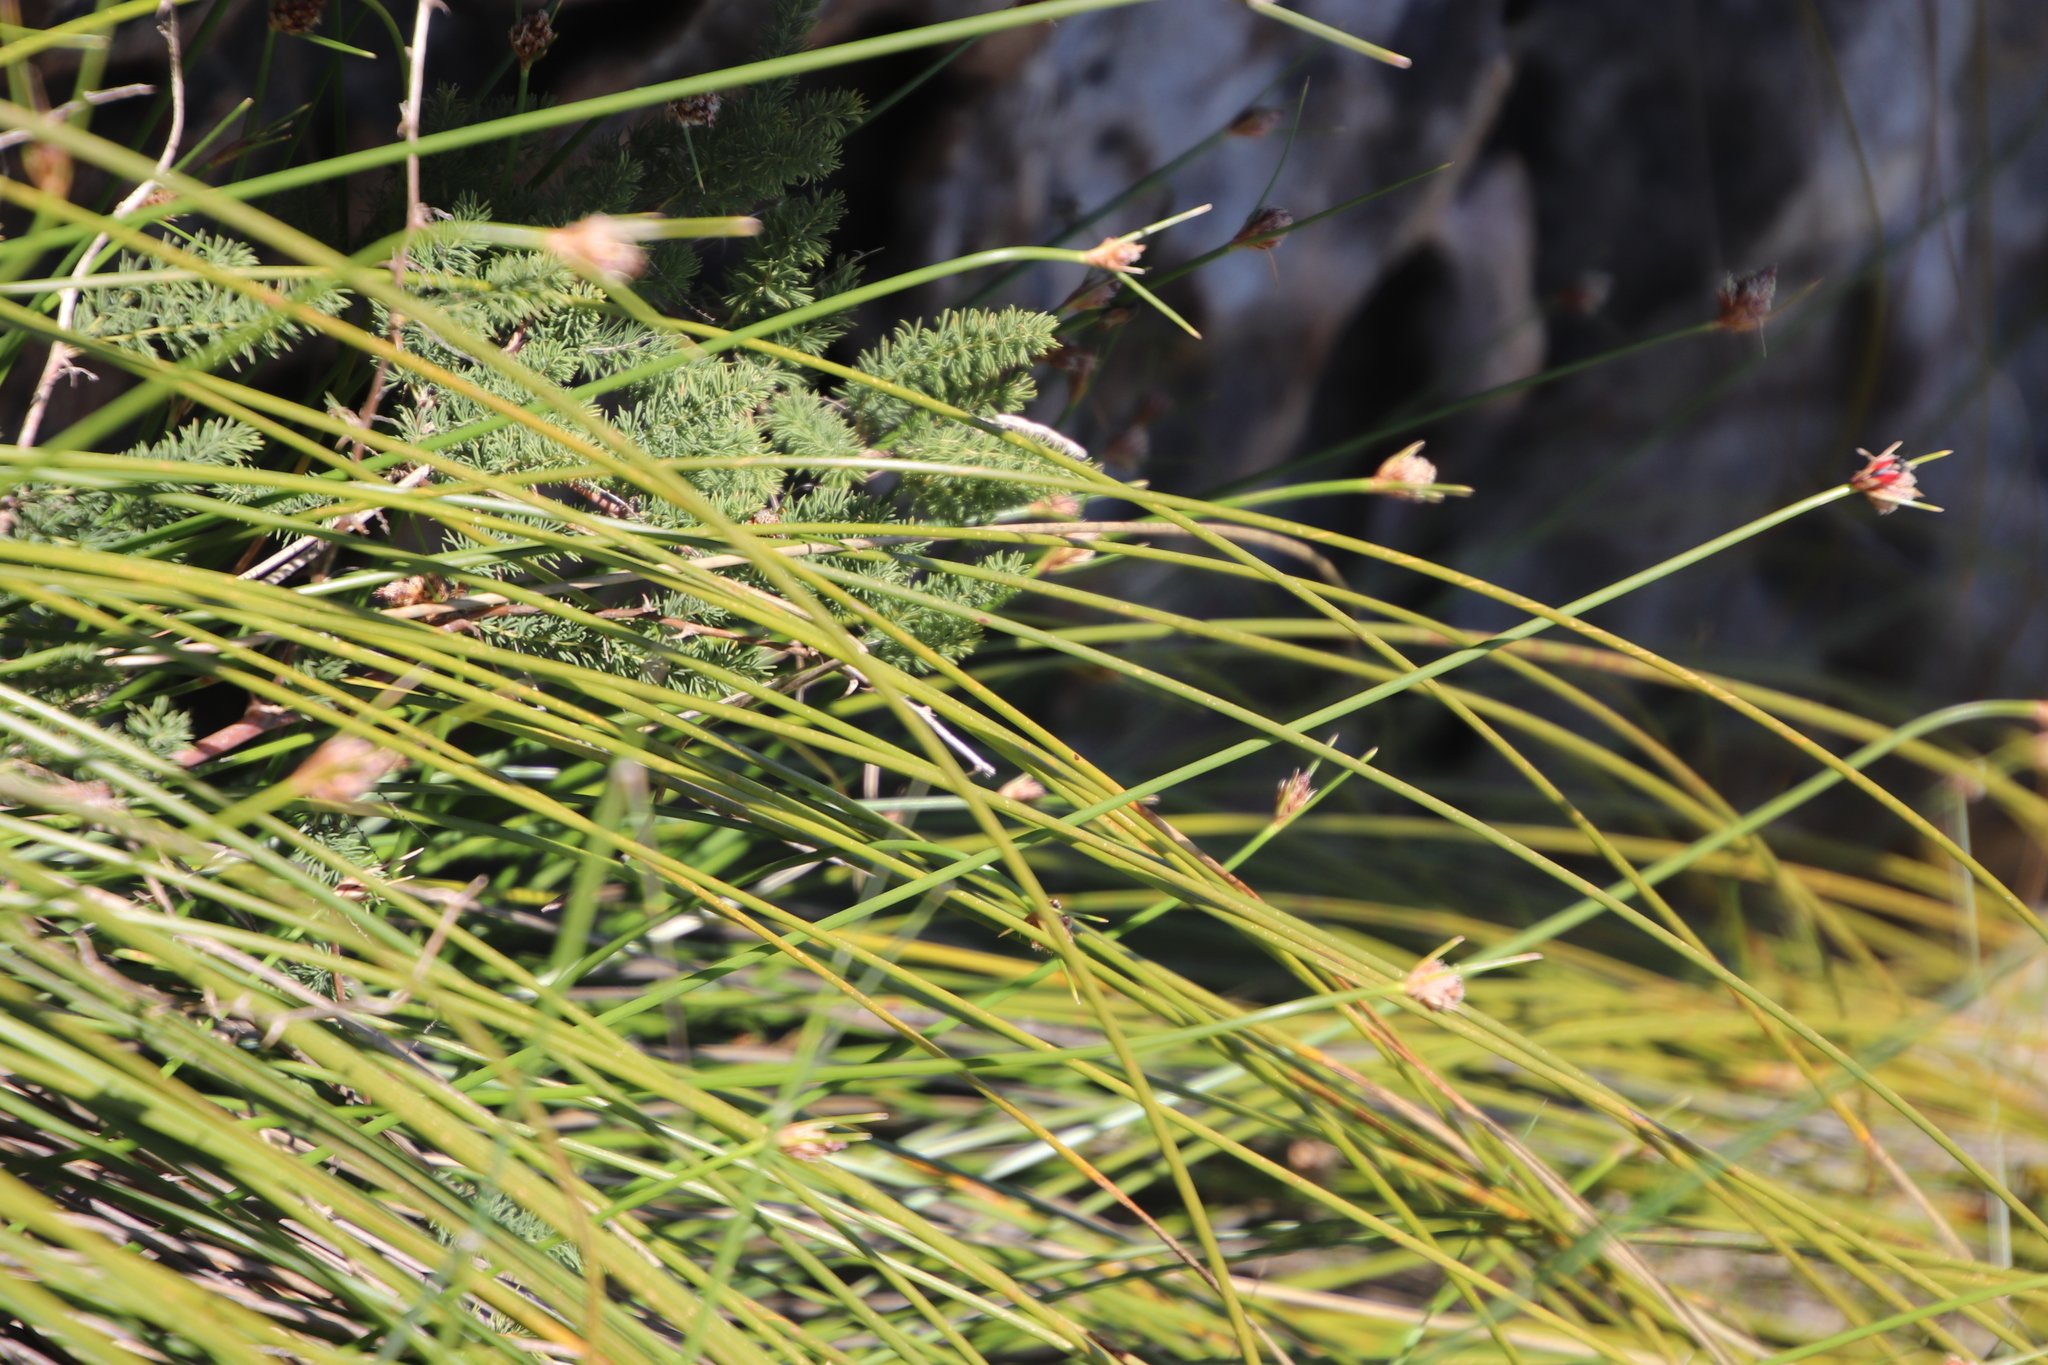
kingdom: Plantae
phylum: Tracheophyta
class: Liliopsida
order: Poales
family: Cyperaceae
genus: Ficinia
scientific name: Ficinia brevifolia
